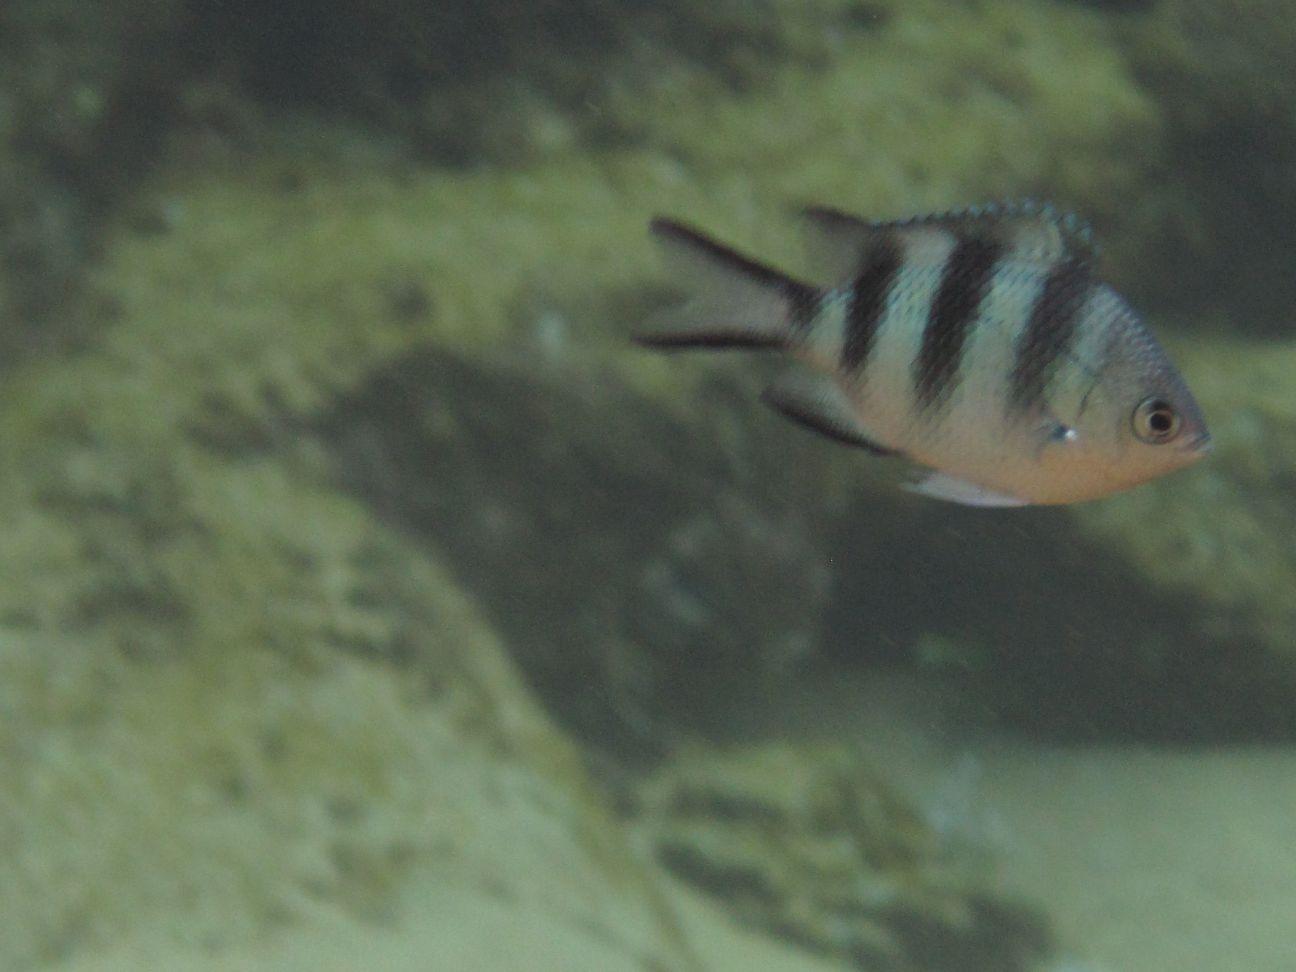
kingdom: Animalia
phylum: Chordata
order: Perciformes
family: Pomacentridae
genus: Abudefduf
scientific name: Abudefduf natalensis
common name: Natal sergeant
